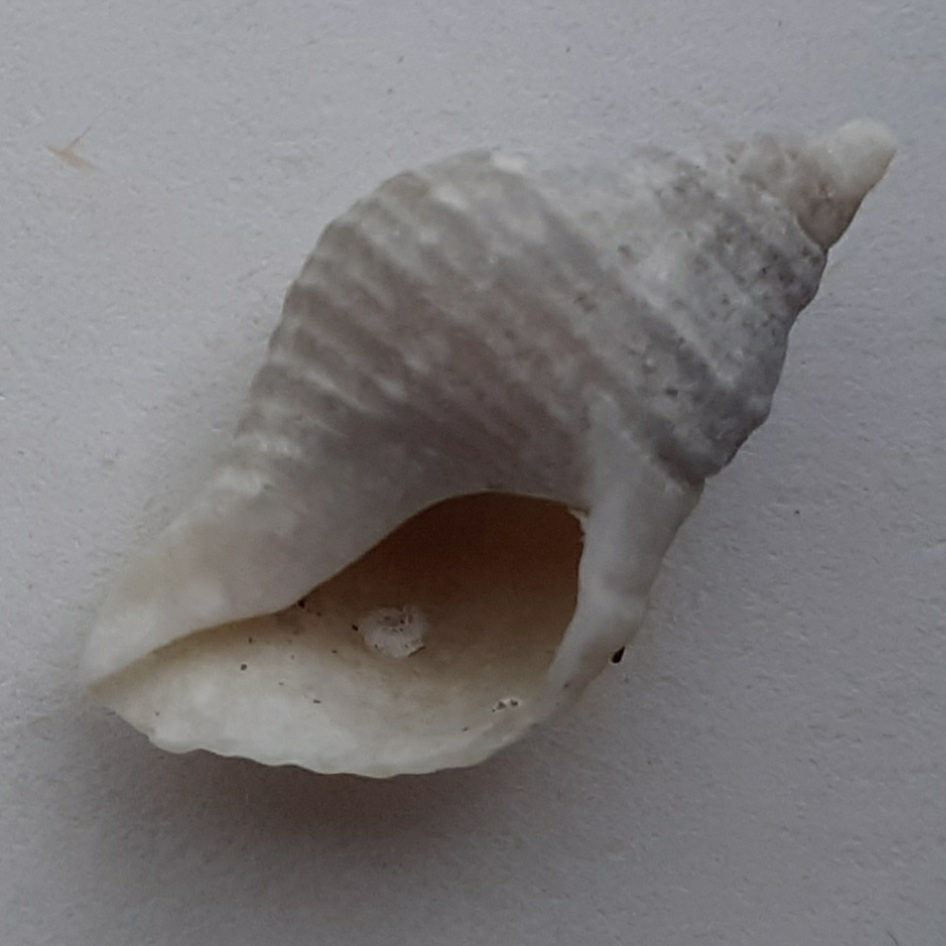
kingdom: Animalia
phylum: Mollusca
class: Gastropoda
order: Neogastropoda
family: Muricidae
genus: Nucella
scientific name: Nucella lapillus
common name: Dog whelk
